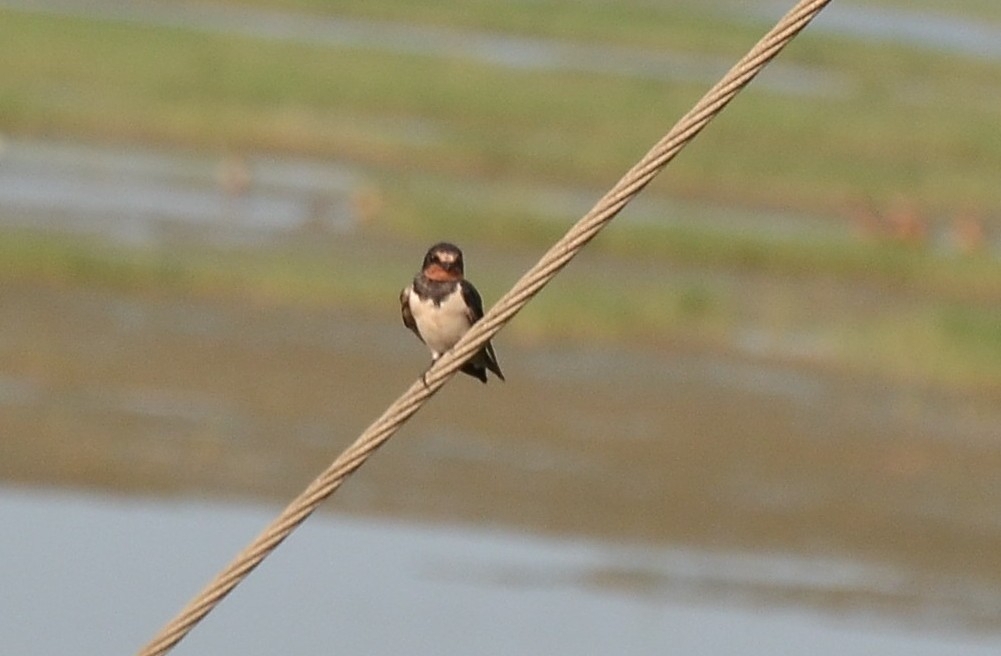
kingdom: Animalia
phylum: Chordata
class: Aves
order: Passeriformes
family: Hirundinidae
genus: Hirundo
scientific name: Hirundo rustica
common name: Barn swallow
